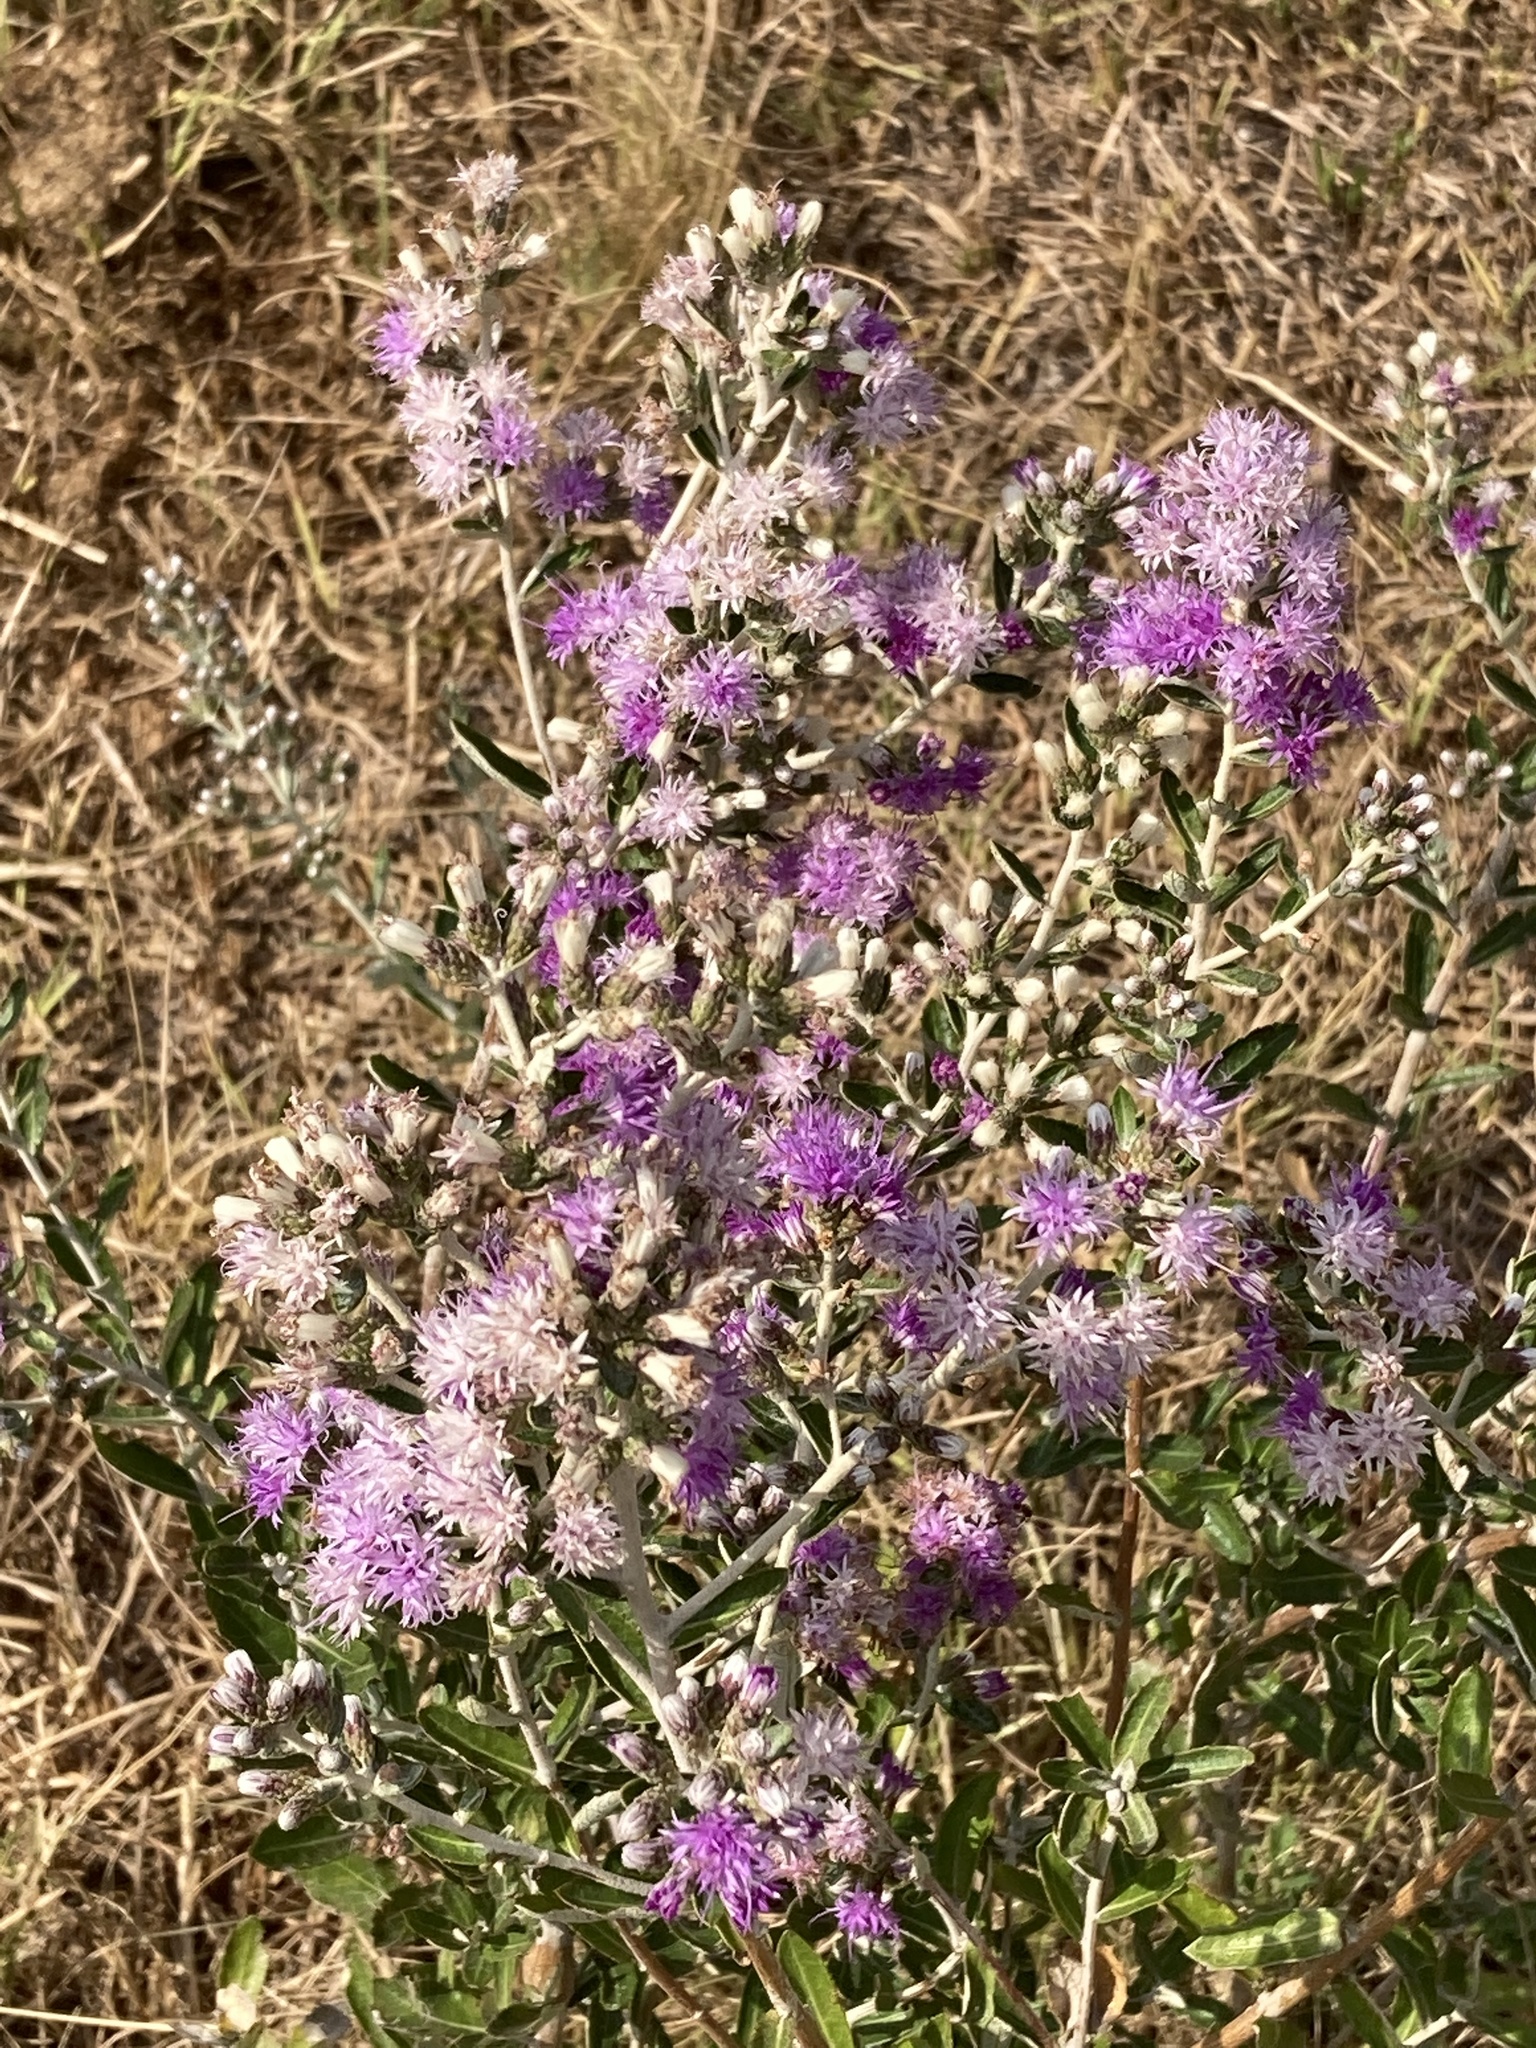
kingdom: Plantae
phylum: Tracheophyta
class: Magnoliopsida
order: Asterales
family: Asteraceae
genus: Vernonanthura
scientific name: Vernonanthura chamaedrys
